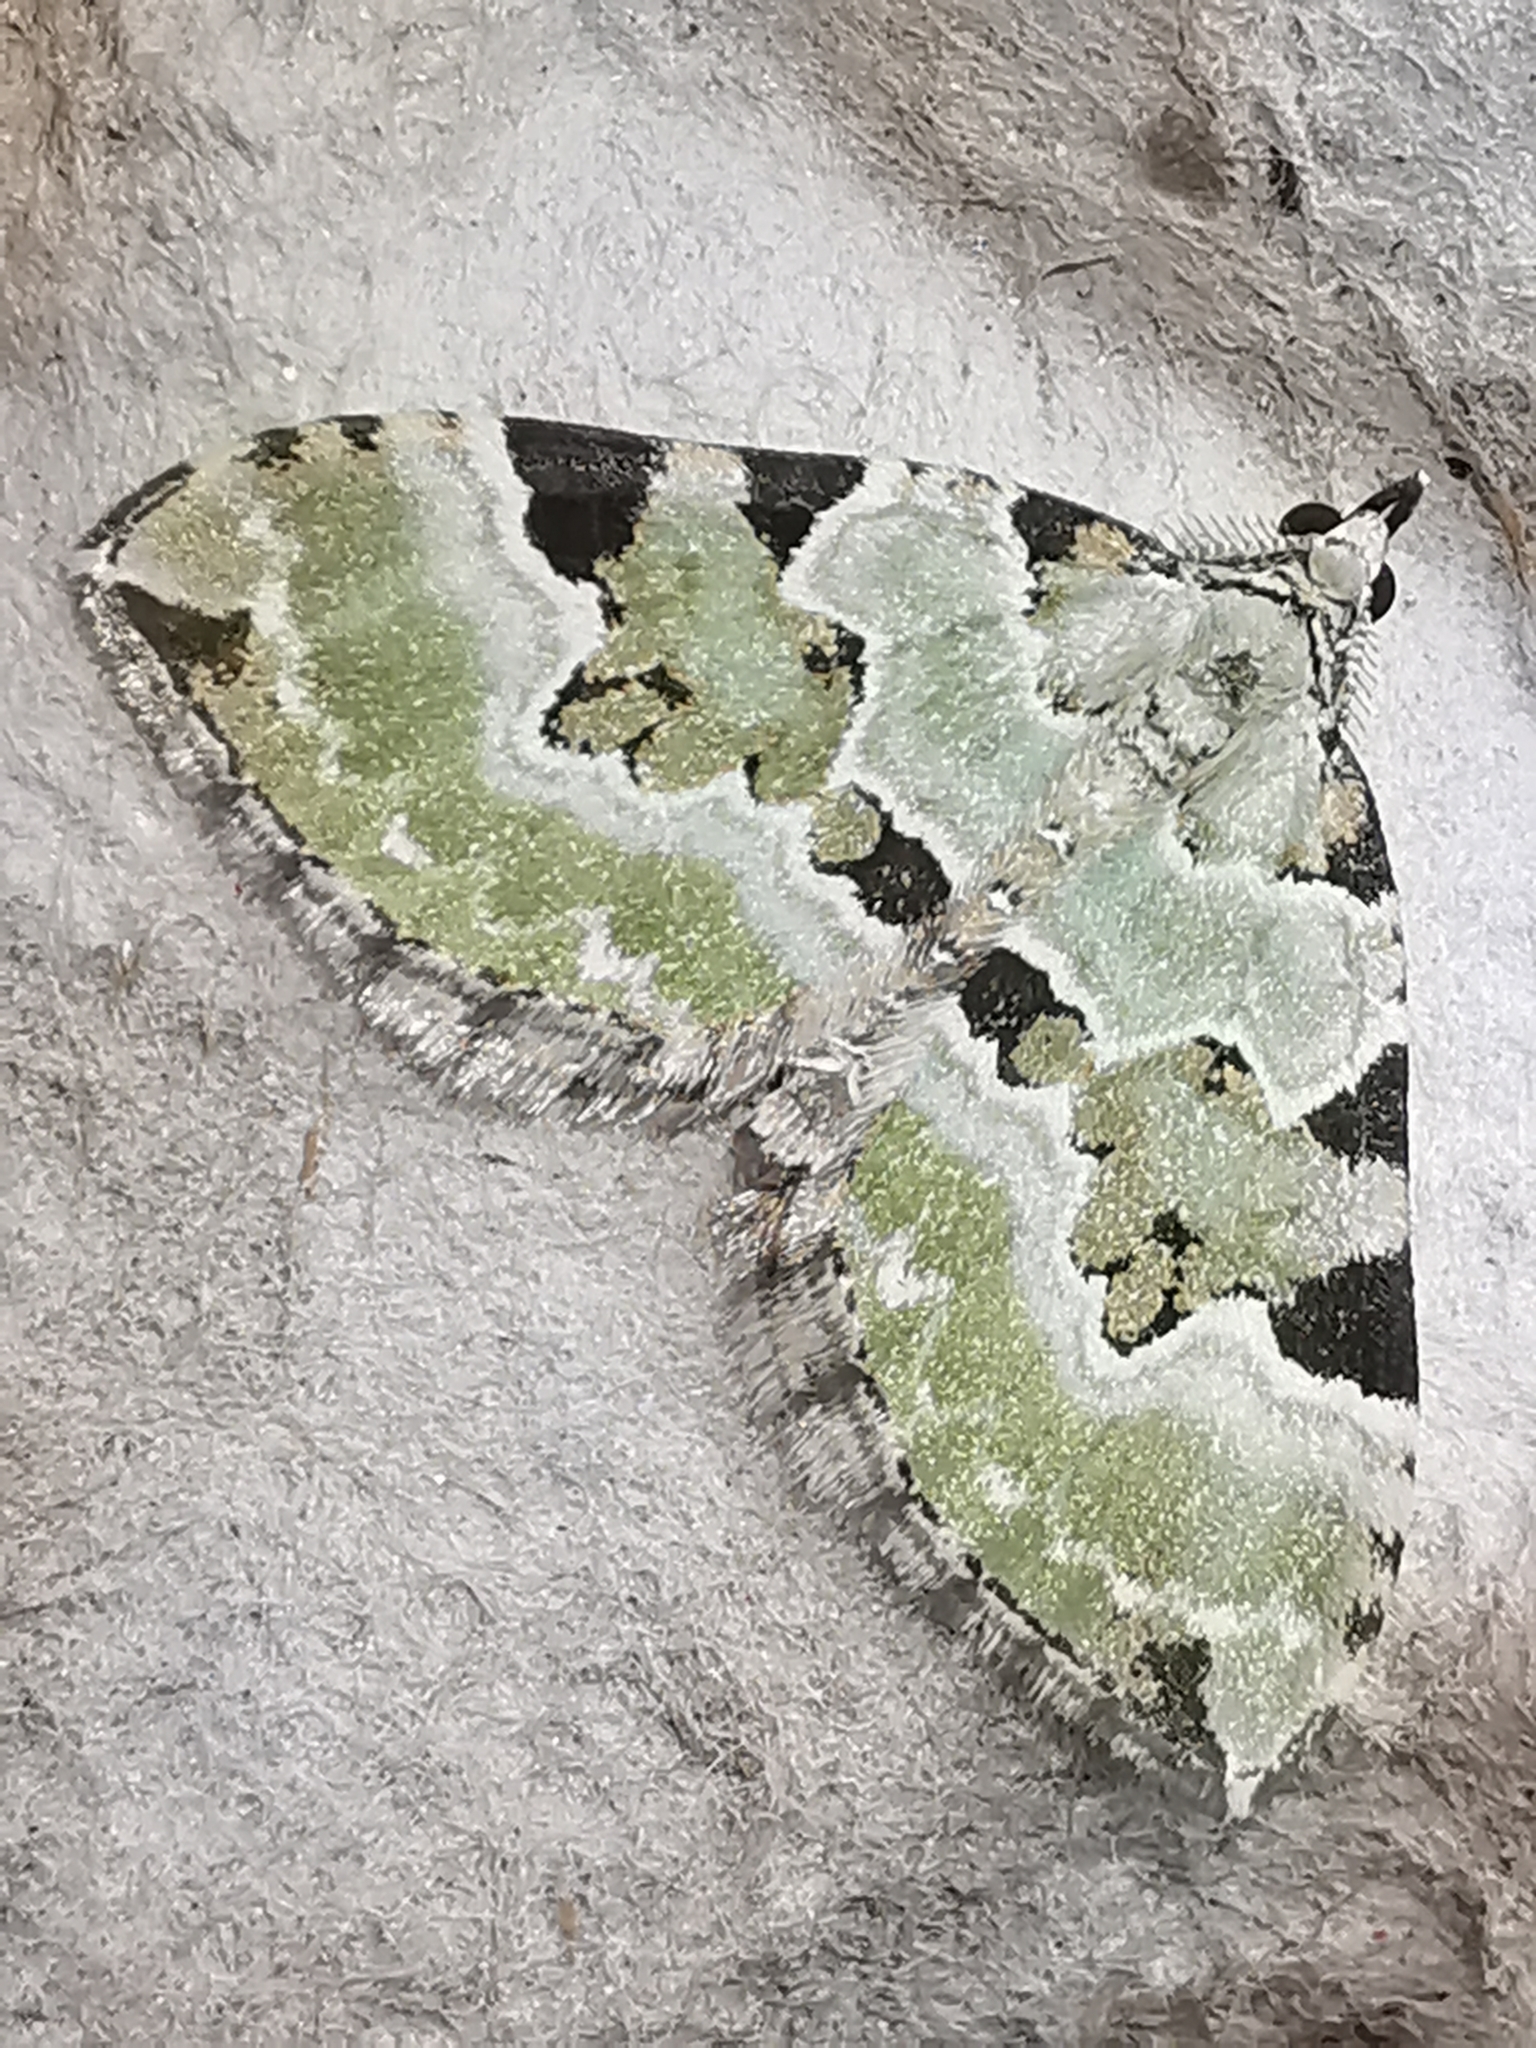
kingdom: Animalia
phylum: Arthropoda
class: Insecta
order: Lepidoptera
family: Geometridae
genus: Colostygia
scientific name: Colostygia pectinataria
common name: Green carpet
